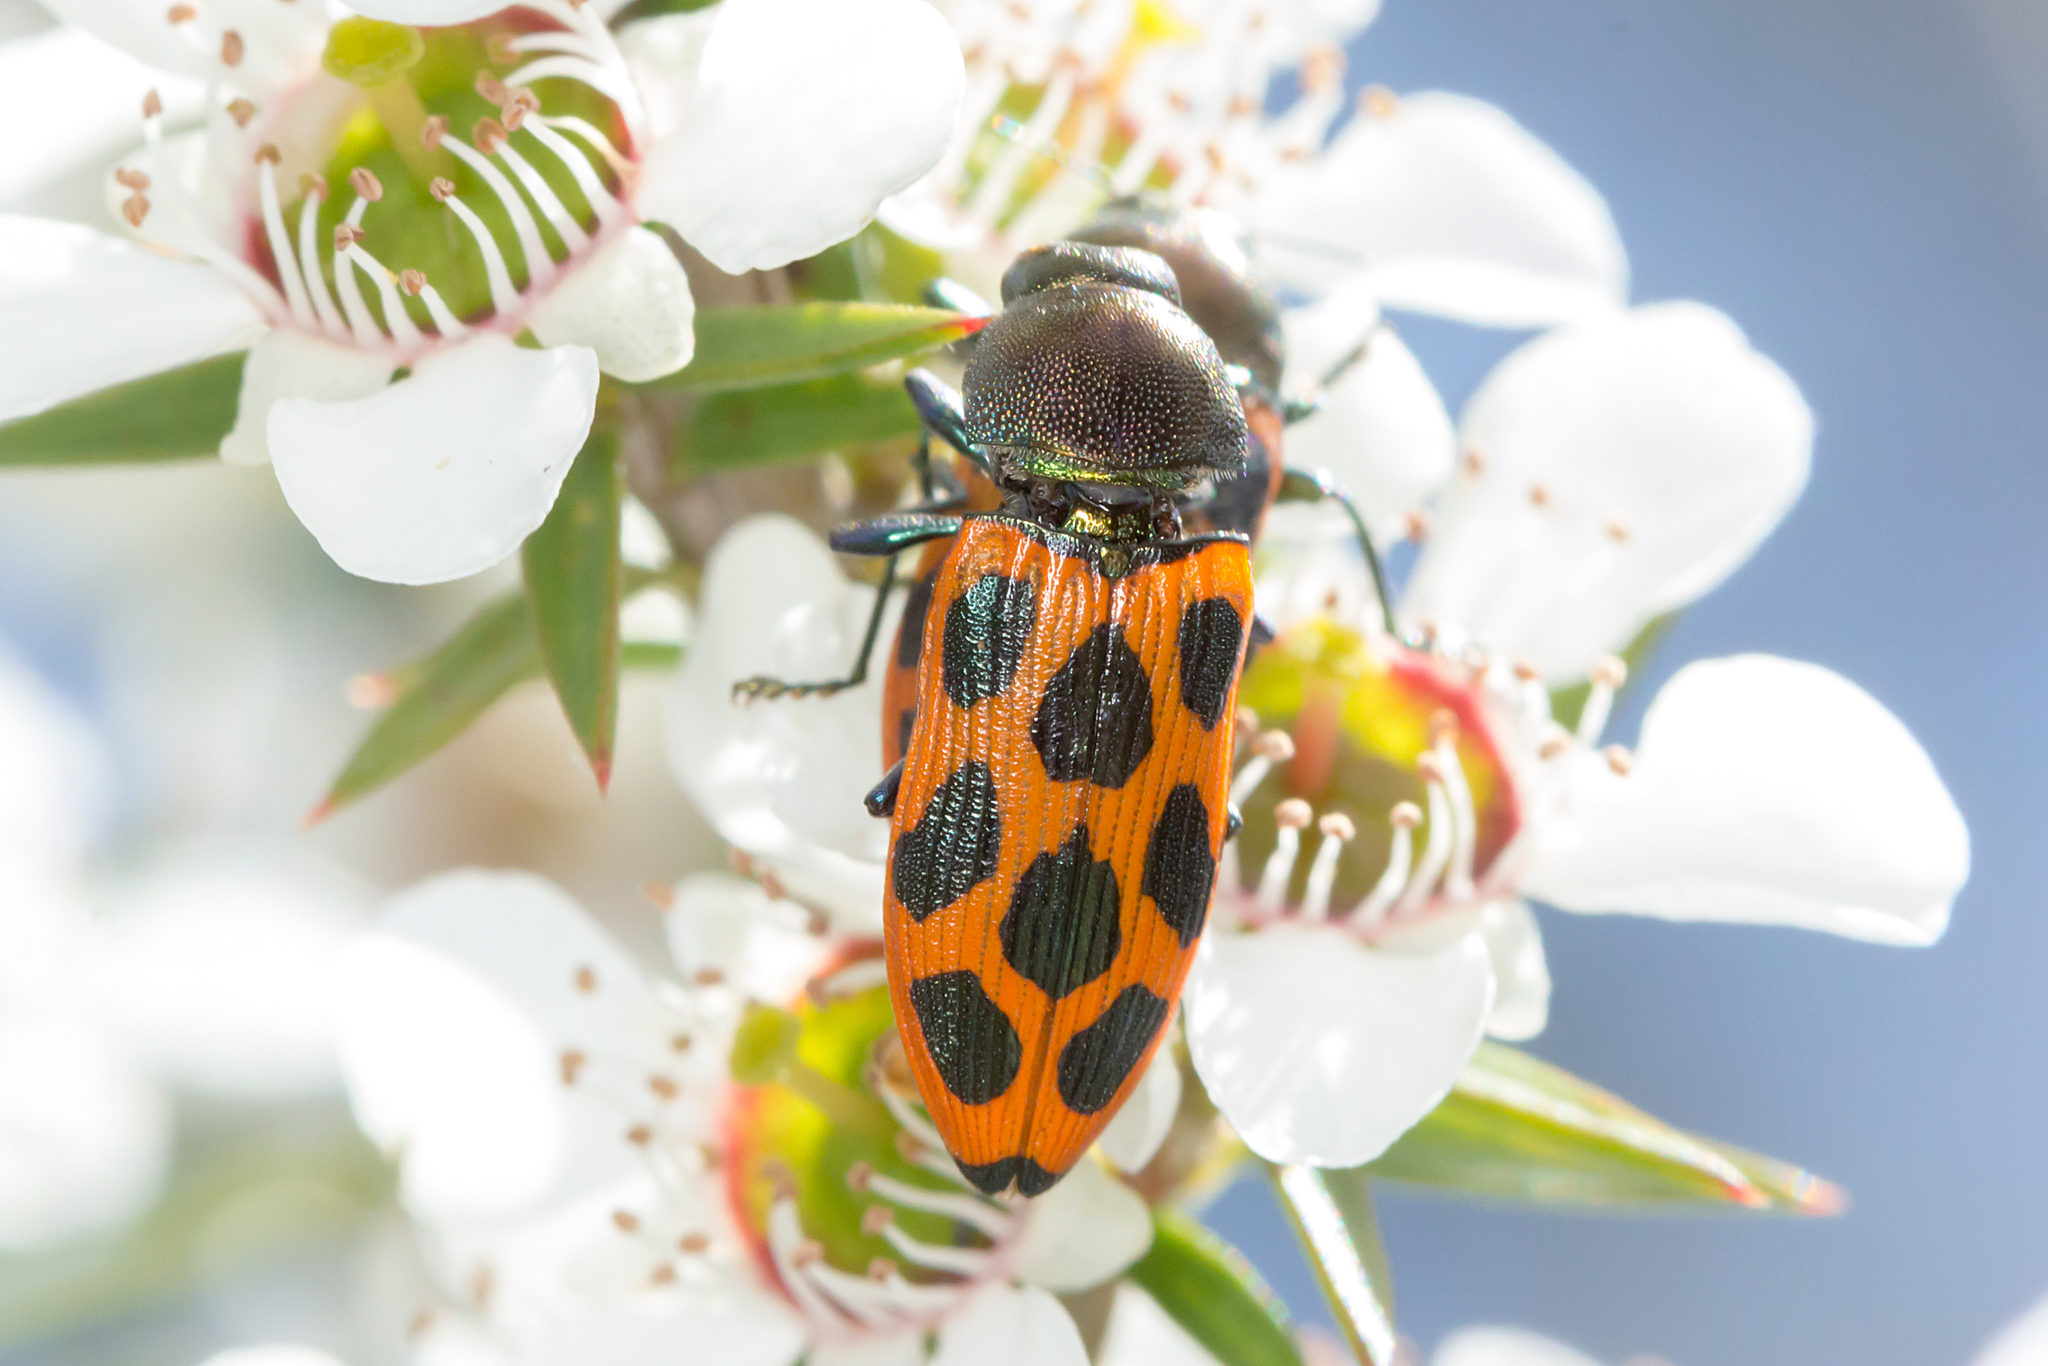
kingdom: Animalia
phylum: Arthropoda
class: Insecta
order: Coleoptera
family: Buprestidae
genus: Castiarina
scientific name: Castiarina octomaculata
